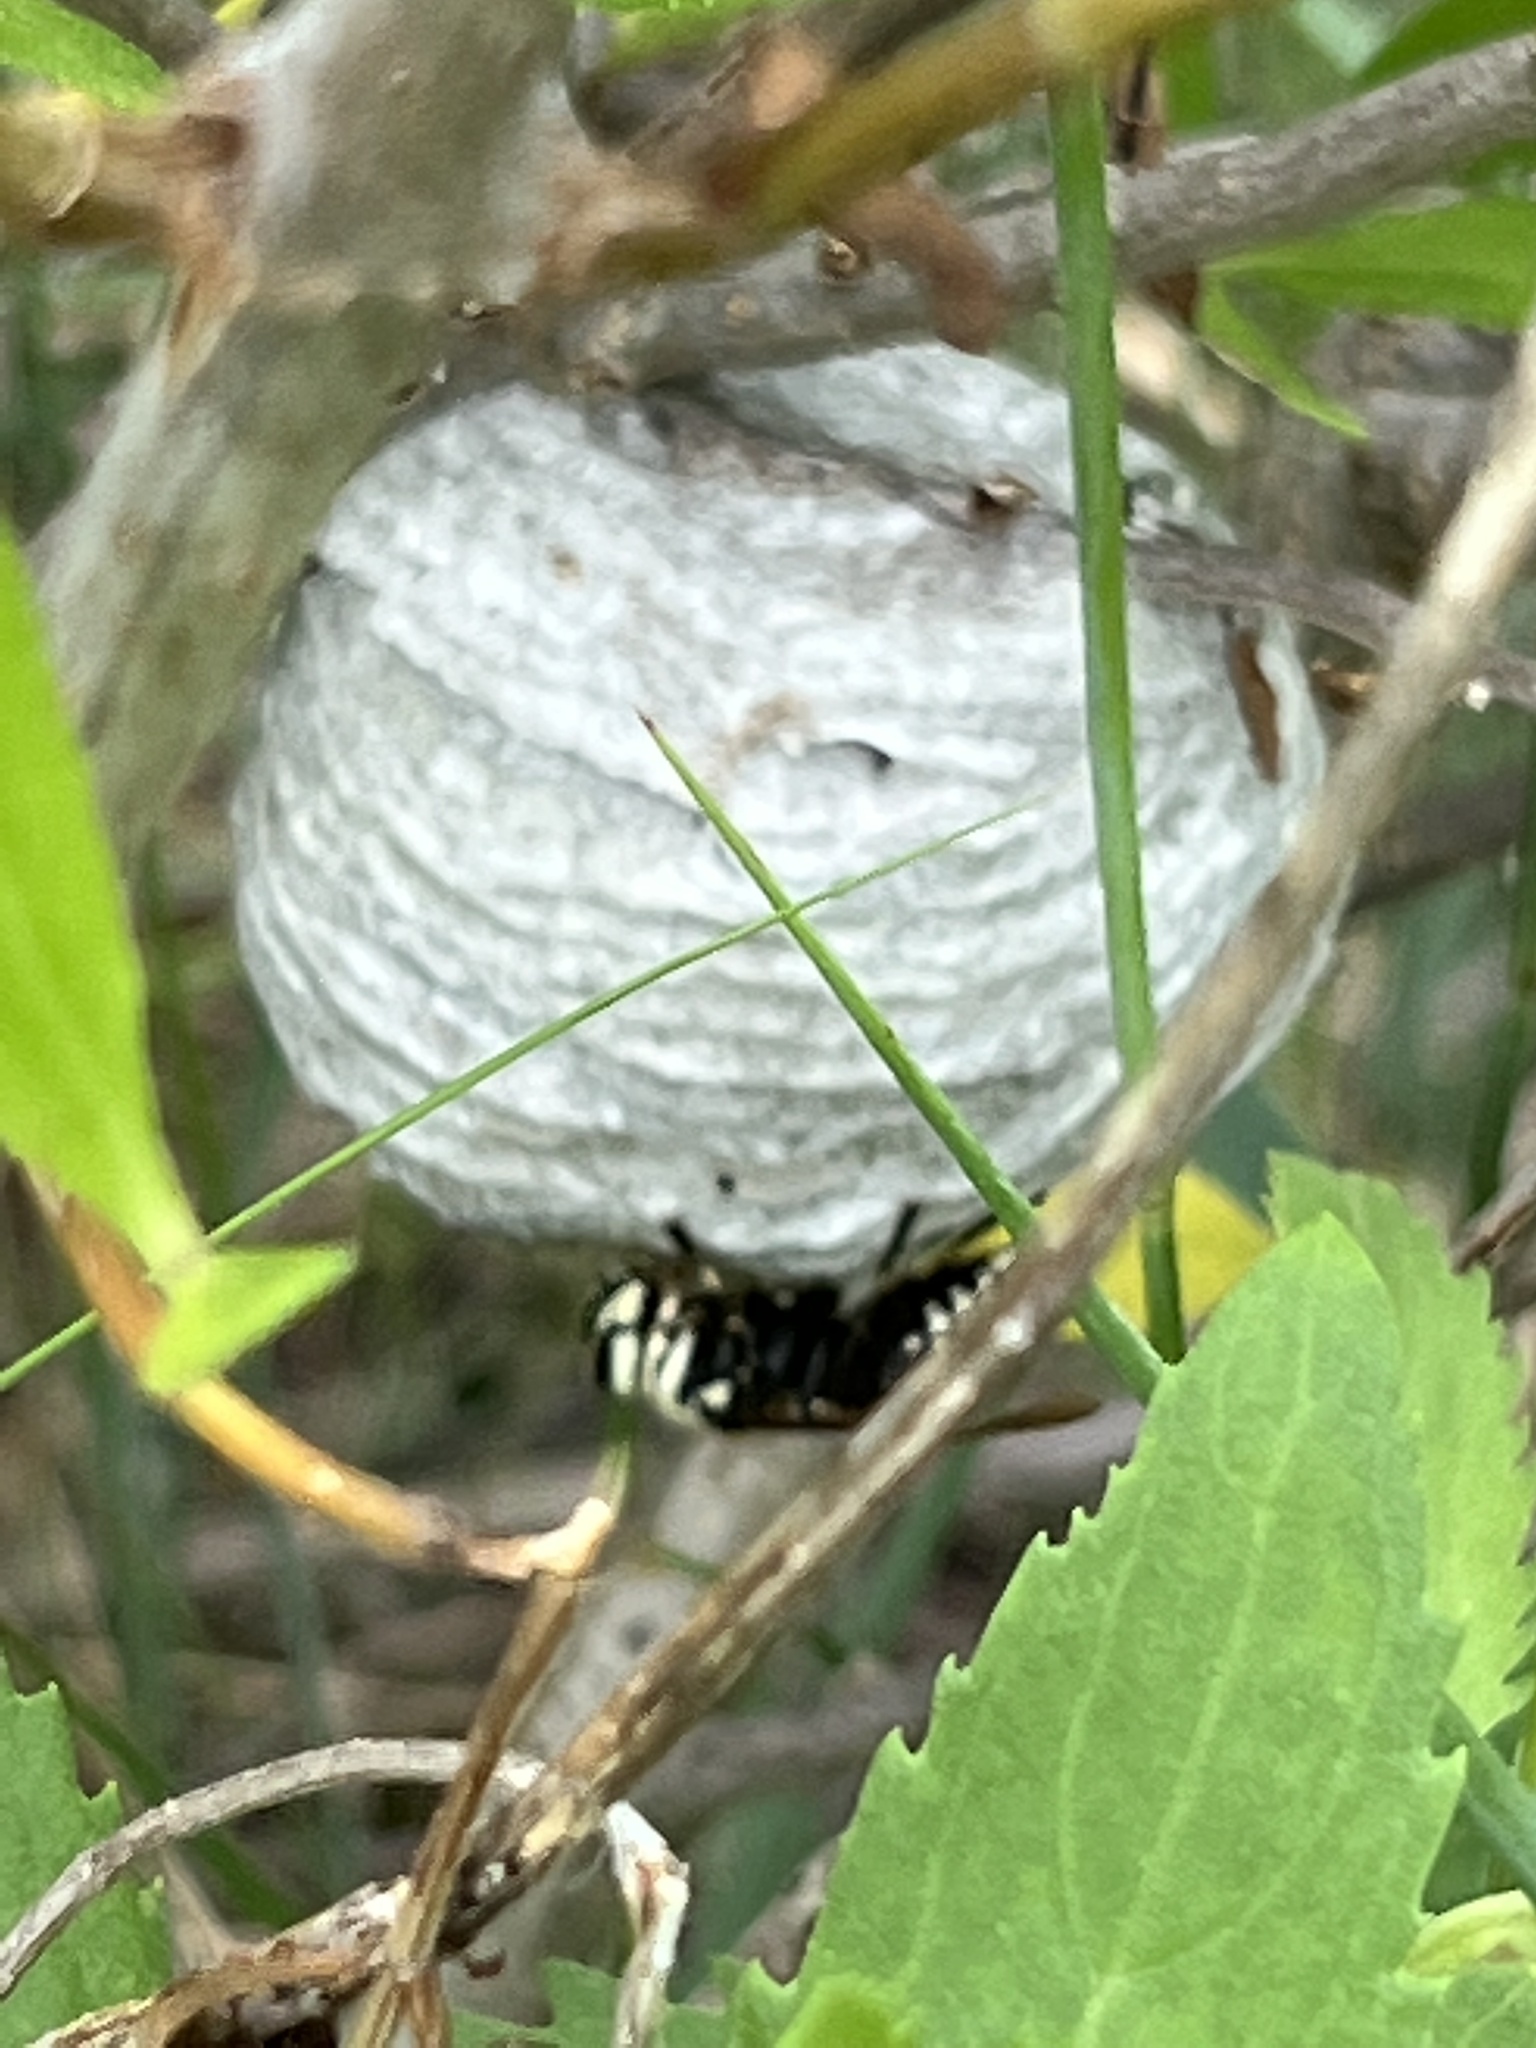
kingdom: Animalia
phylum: Arthropoda
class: Insecta
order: Hymenoptera
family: Vespidae
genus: Dolichovespula
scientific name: Dolichovespula maculata
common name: Bald-faced hornet
